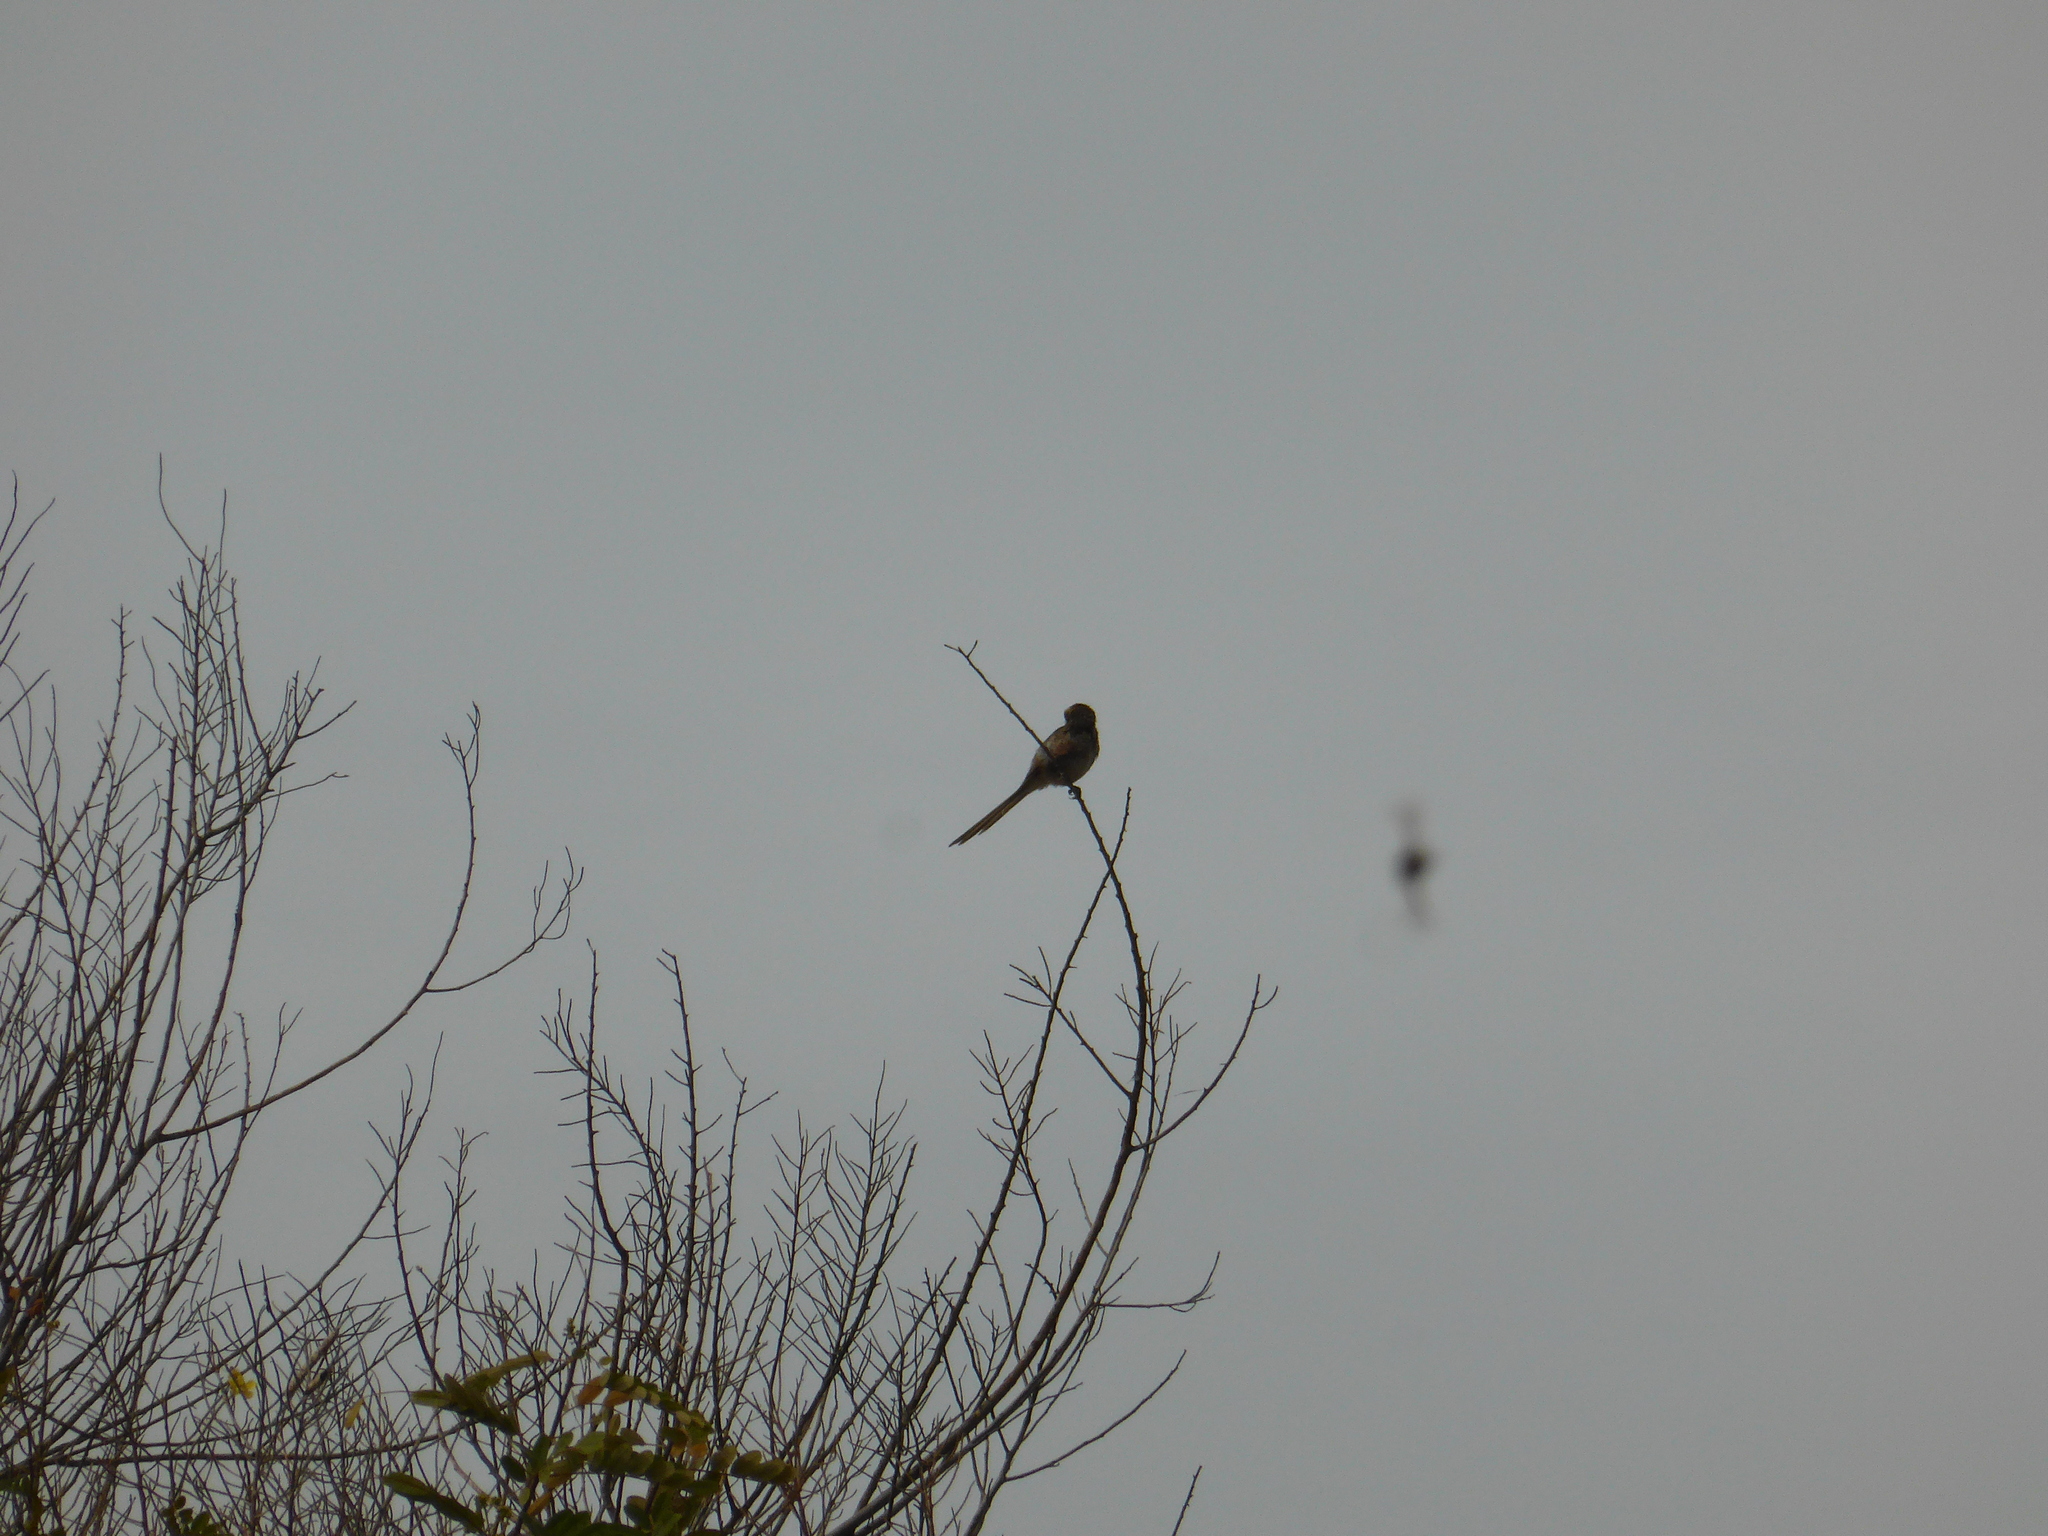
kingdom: Animalia
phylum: Chordata
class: Aves
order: Passeriformes
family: Laniidae
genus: Corvinella
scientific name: Corvinella corvina
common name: Yellow-billed shrike
